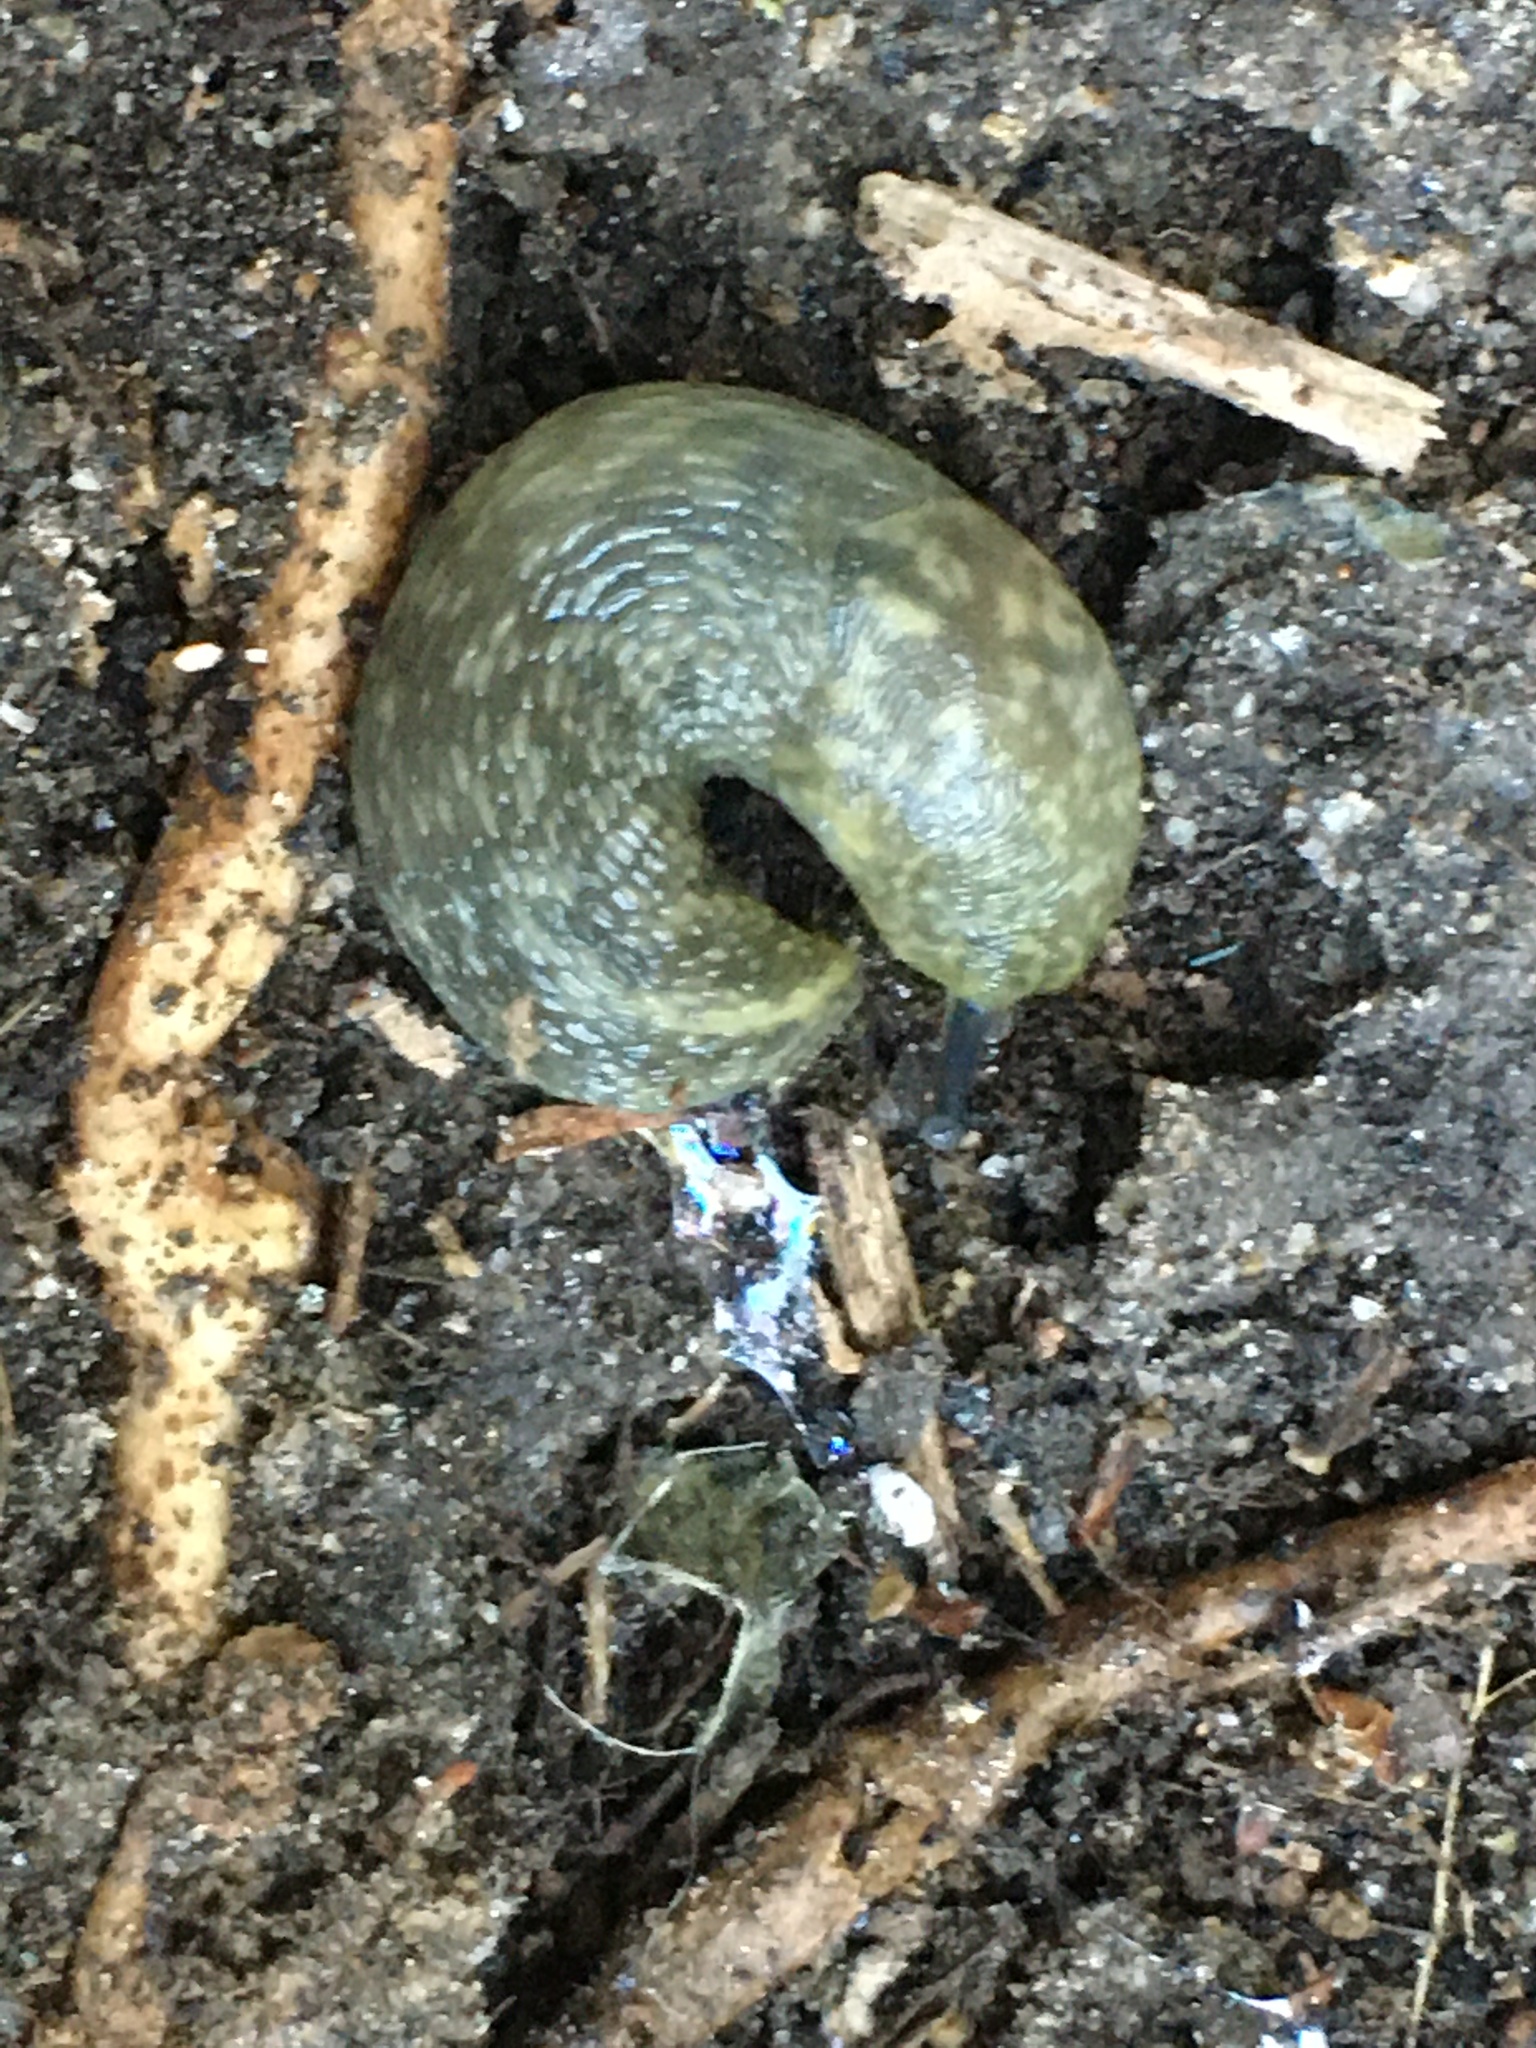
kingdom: Animalia
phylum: Mollusca
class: Gastropoda
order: Stylommatophora
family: Limacidae
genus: Limacus
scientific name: Limacus flavus
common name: Yellow gardenslug
